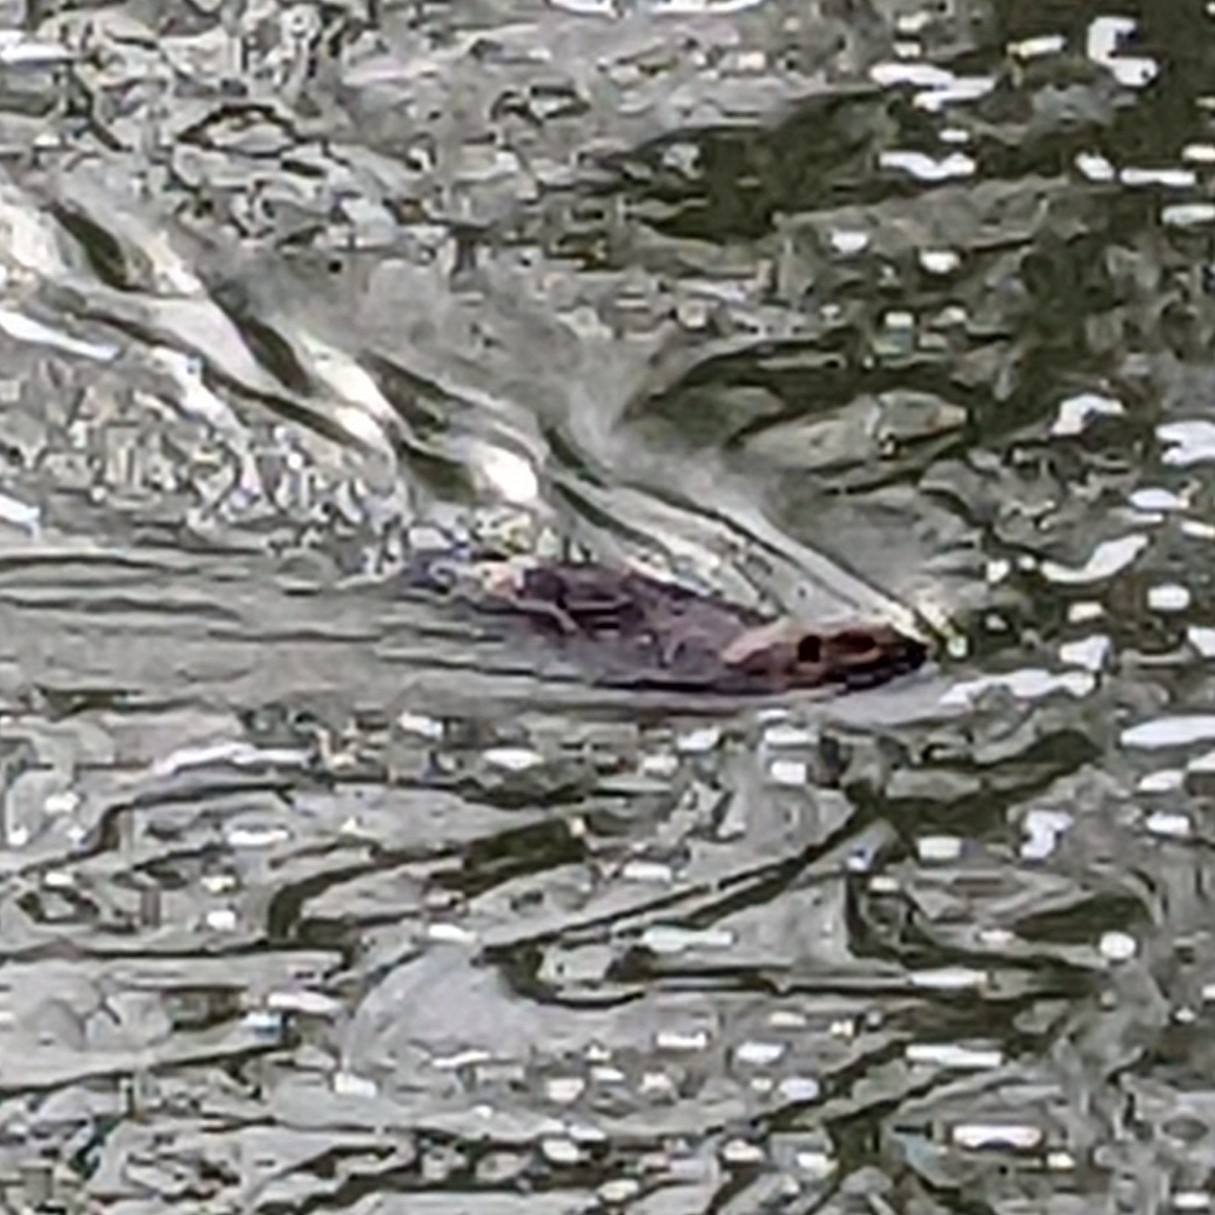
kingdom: Animalia
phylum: Chordata
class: Mammalia
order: Rodentia
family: Castoridae
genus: Castor
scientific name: Castor canadensis
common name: American beaver
